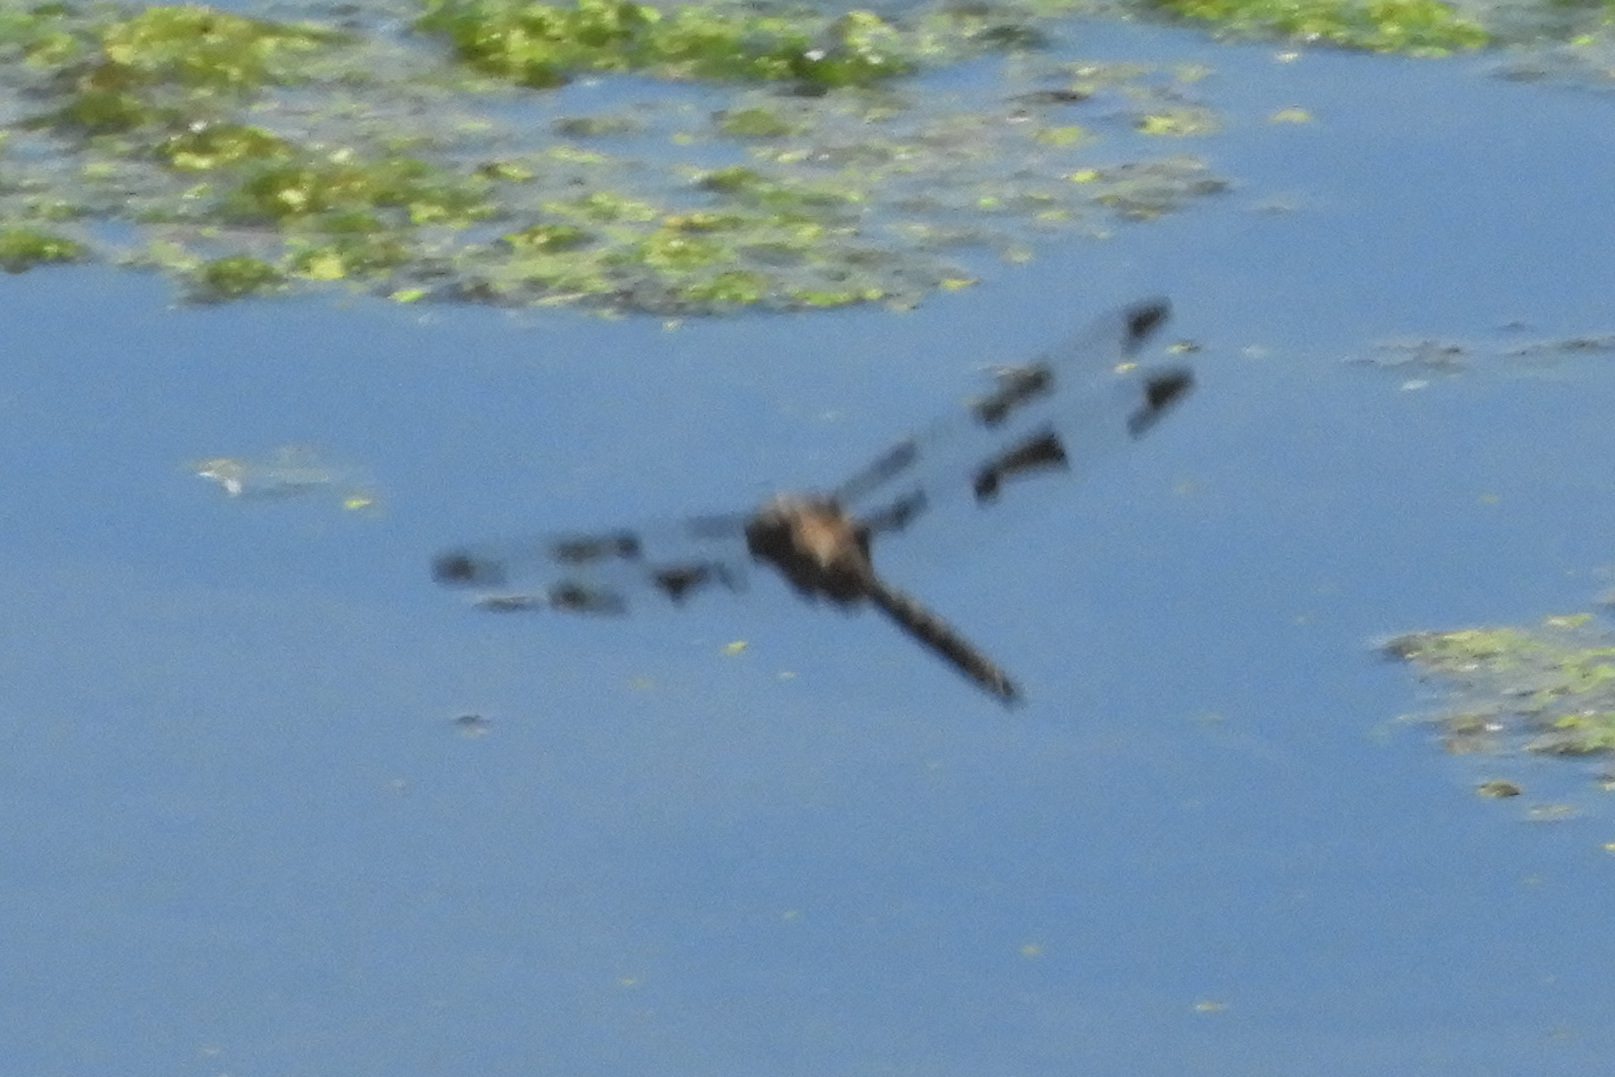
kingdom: Animalia
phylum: Arthropoda
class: Insecta
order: Odonata
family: Corduliidae
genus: Epitheca
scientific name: Epitheca princeps
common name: Prince baskettail
